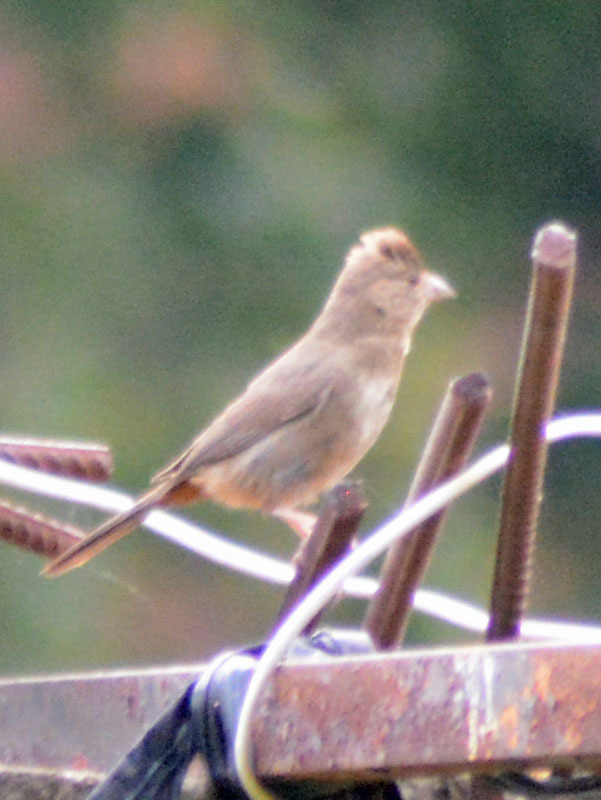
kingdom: Animalia
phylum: Chordata
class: Aves
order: Passeriformes
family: Passerellidae
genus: Melozone
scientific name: Melozone fusca
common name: Canyon towhee
